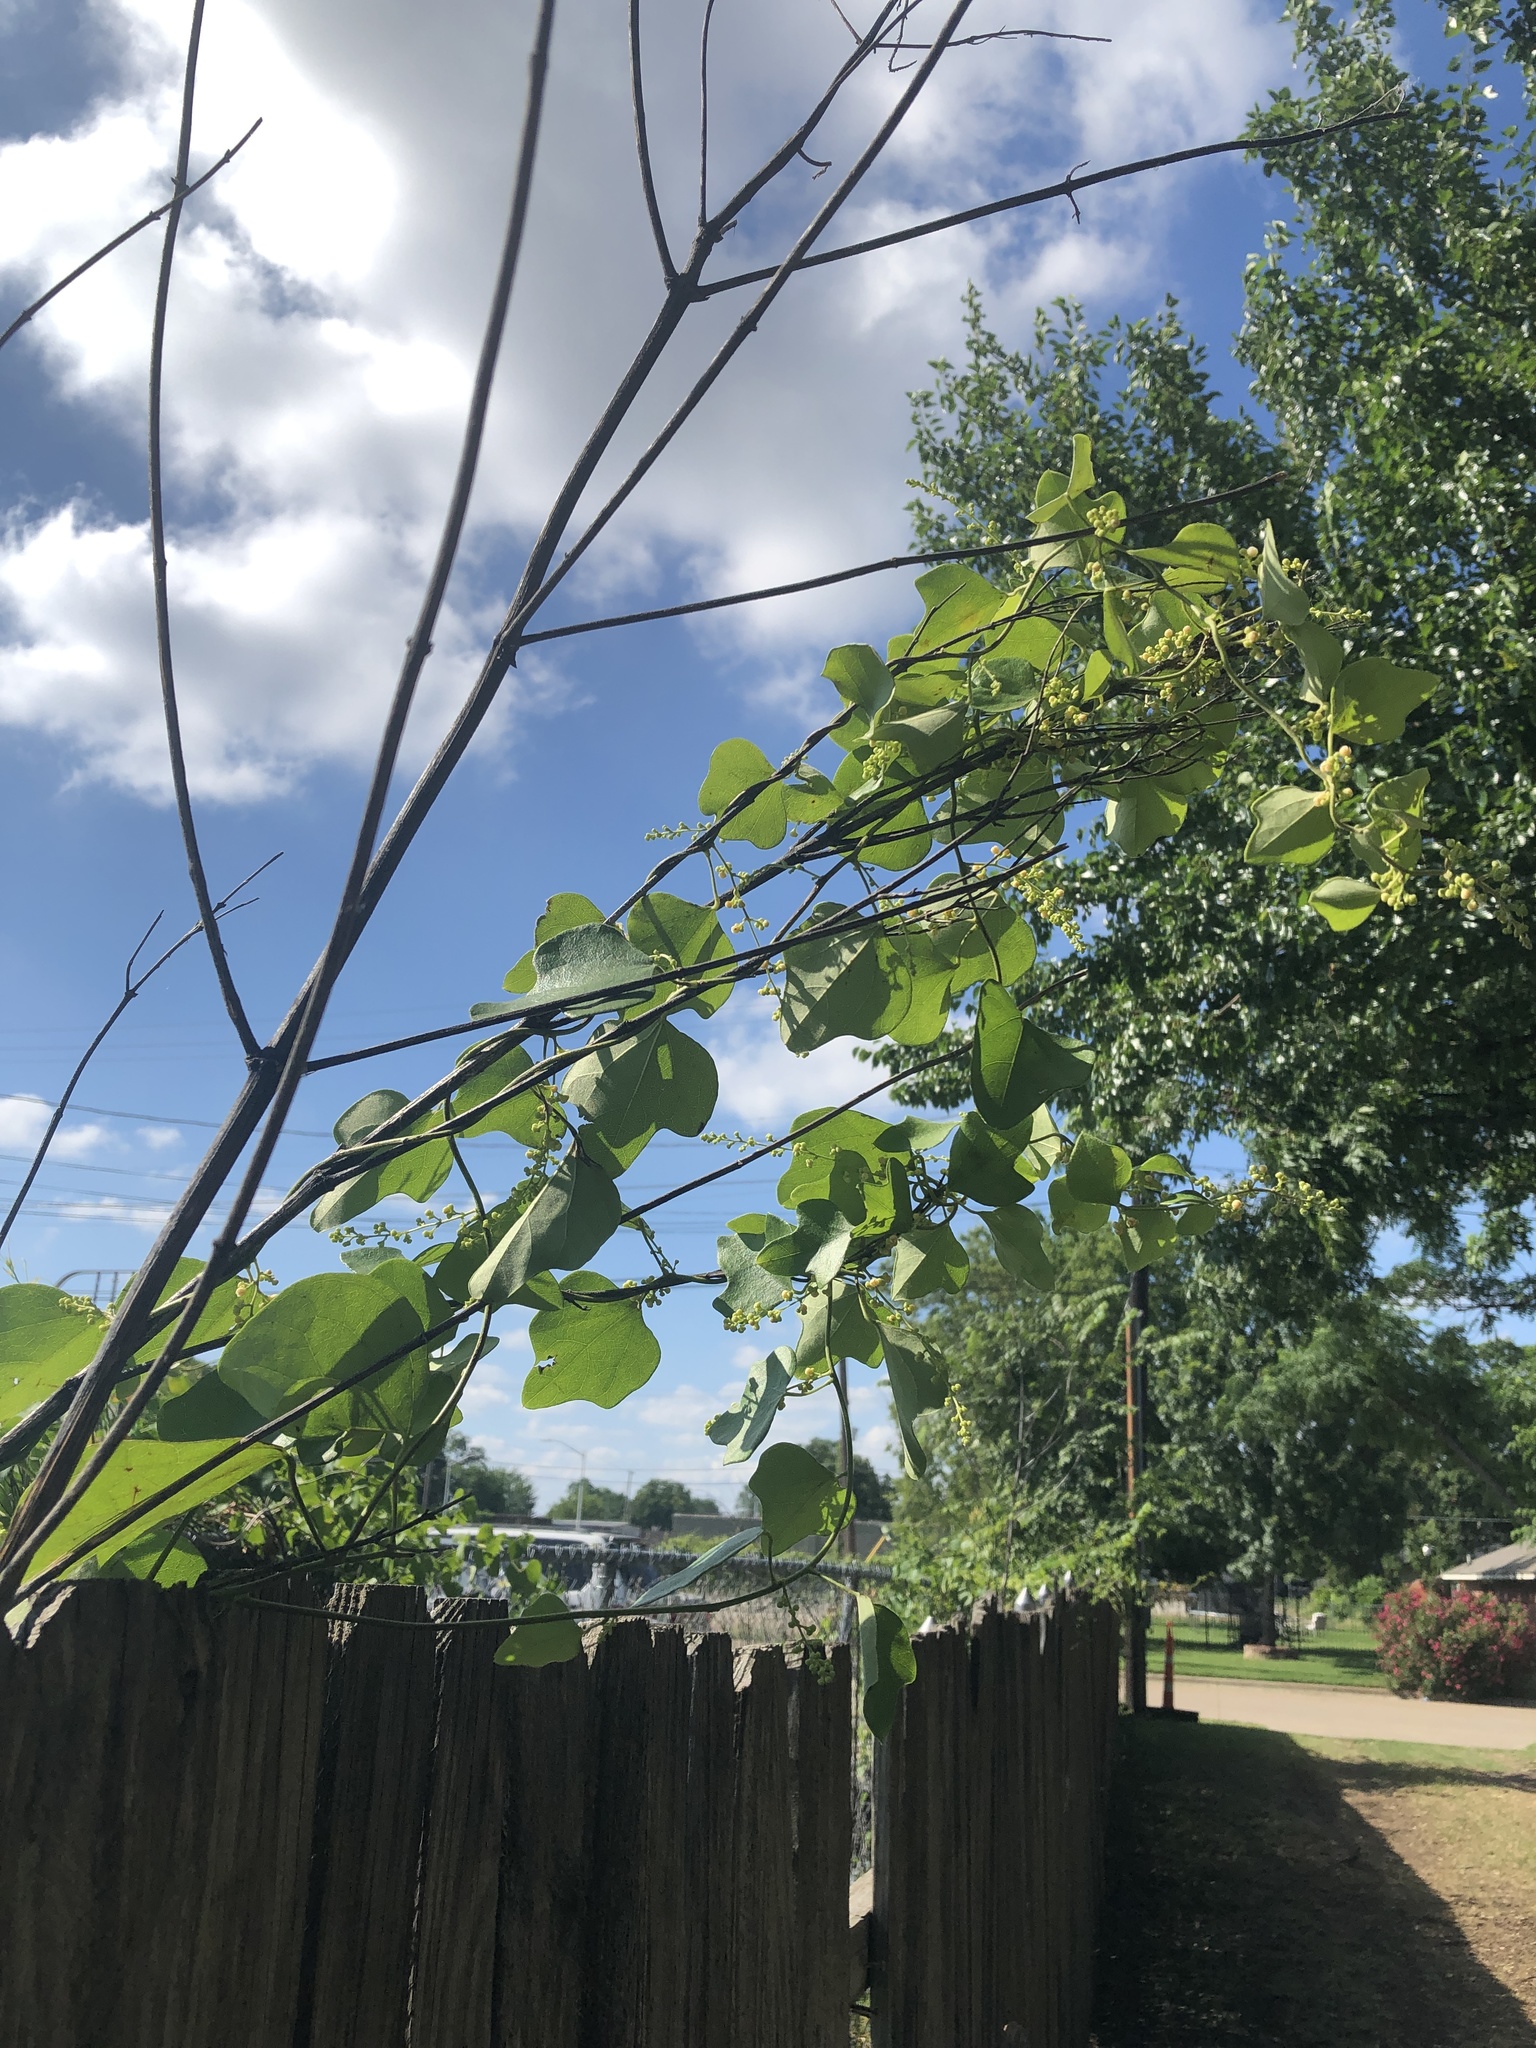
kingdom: Plantae
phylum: Tracheophyta
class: Magnoliopsida
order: Ranunculales
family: Menispermaceae
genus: Cocculus
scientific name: Cocculus carolinus
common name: Carolina moonseed
